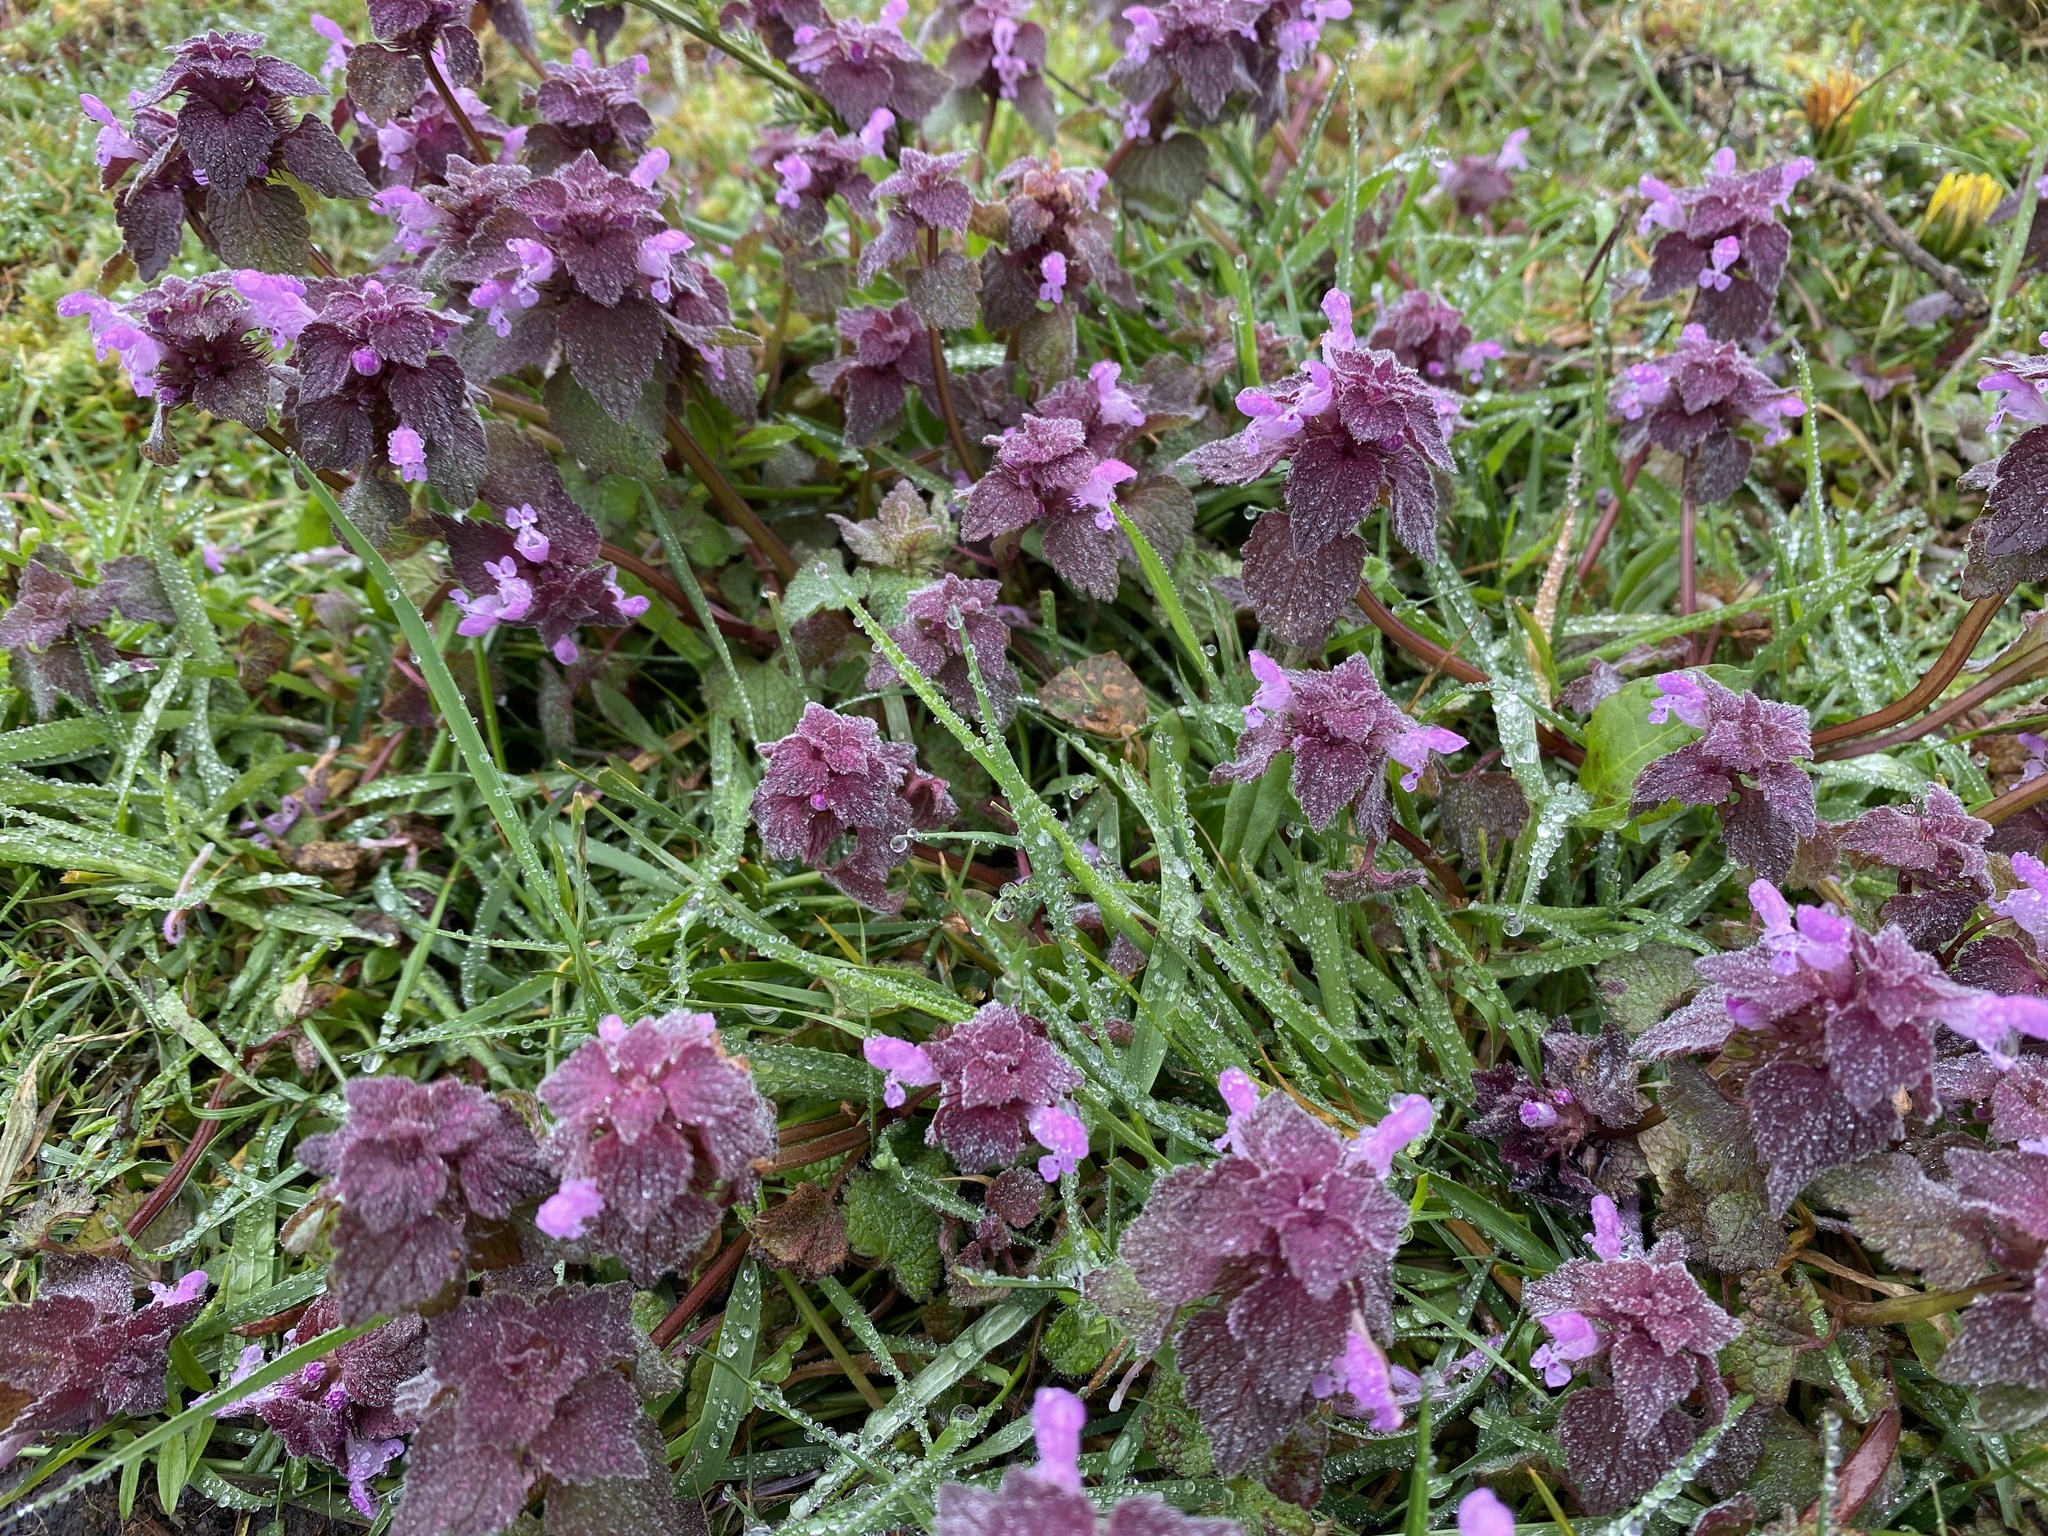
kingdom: Plantae
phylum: Tracheophyta
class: Magnoliopsida
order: Lamiales
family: Lamiaceae
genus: Lamium
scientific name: Lamium purpureum
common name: Red dead-nettle
